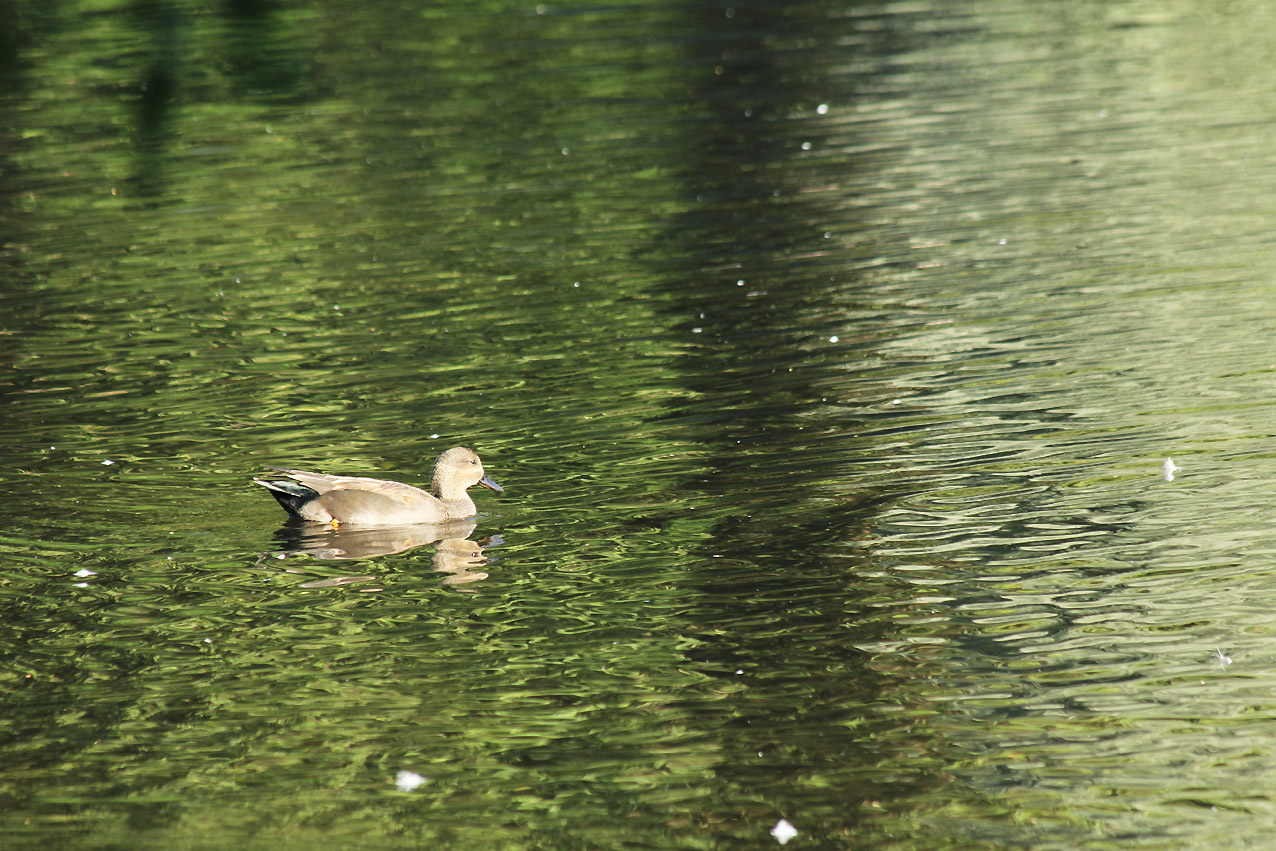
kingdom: Animalia
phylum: Chordata
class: Aves
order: Anseriformes
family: Anatidae
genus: Mareca
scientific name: Mareca strepera
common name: Gadwall
